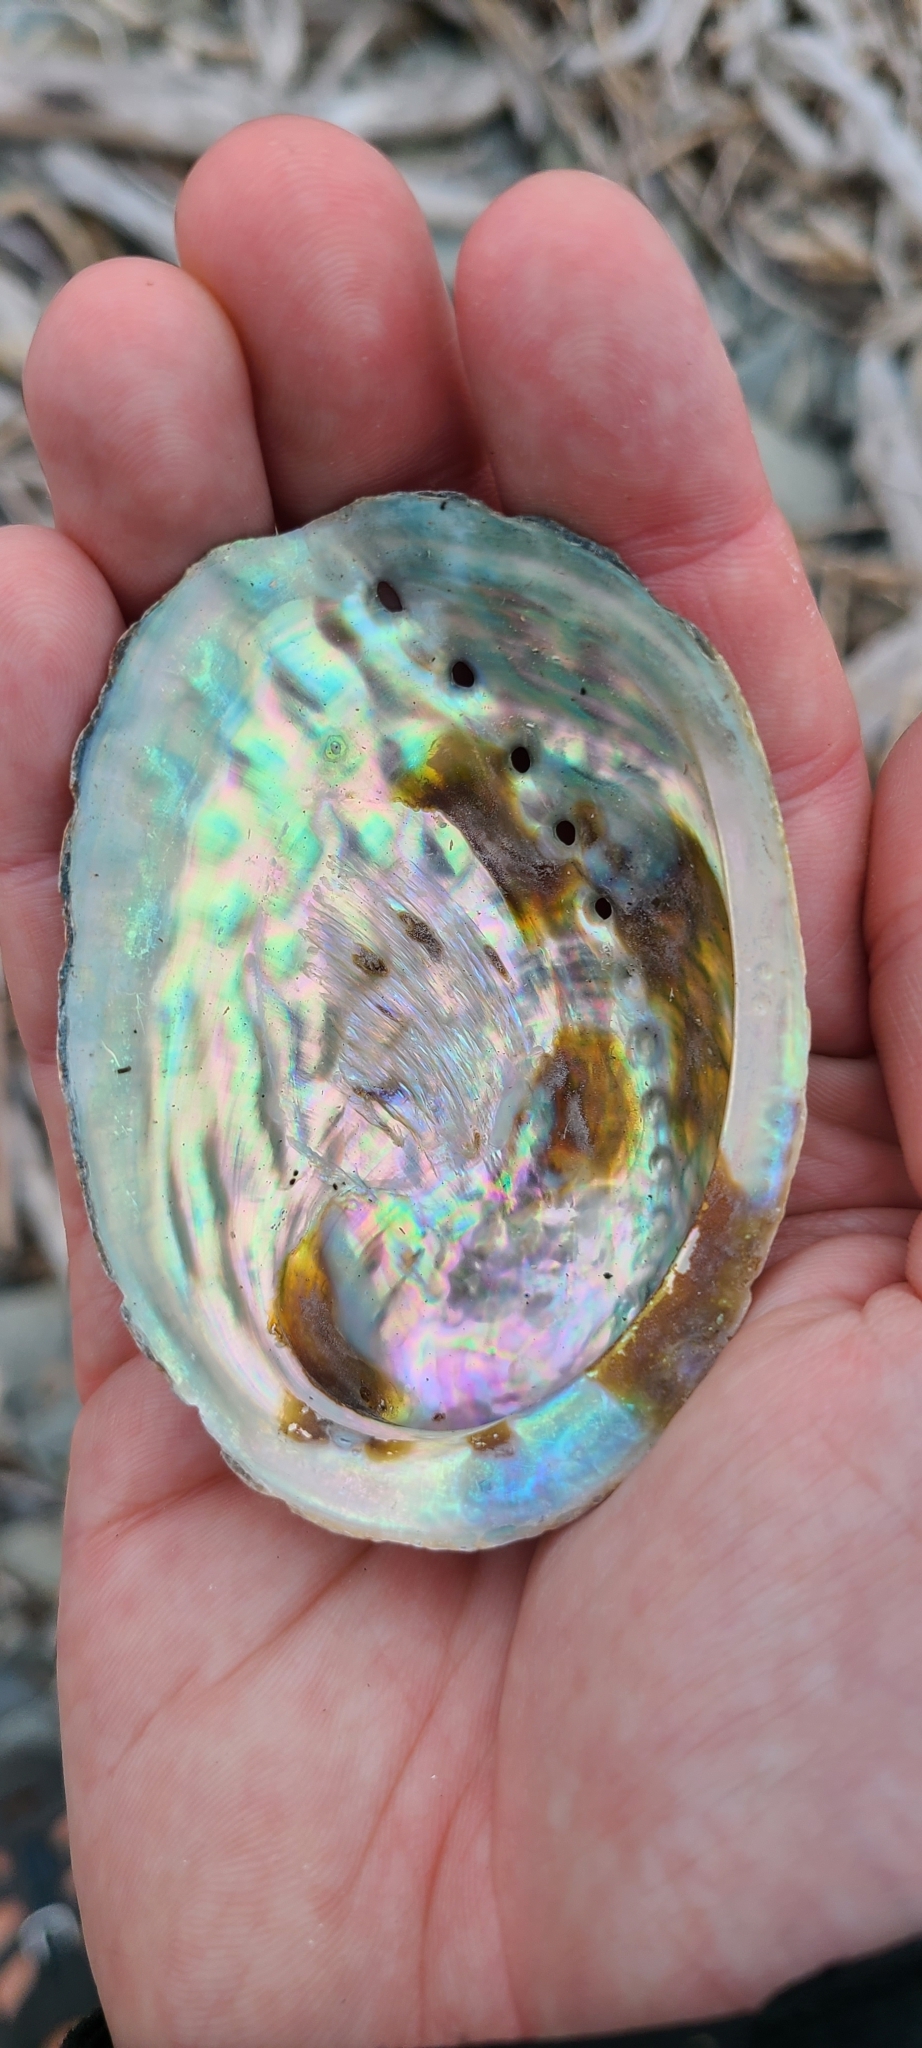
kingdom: Animalia
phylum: Mollusca
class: Gastropoda
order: Lepetellida
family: Haliotidae
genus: Haliotis
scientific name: Haliotis iris
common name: Abalone
